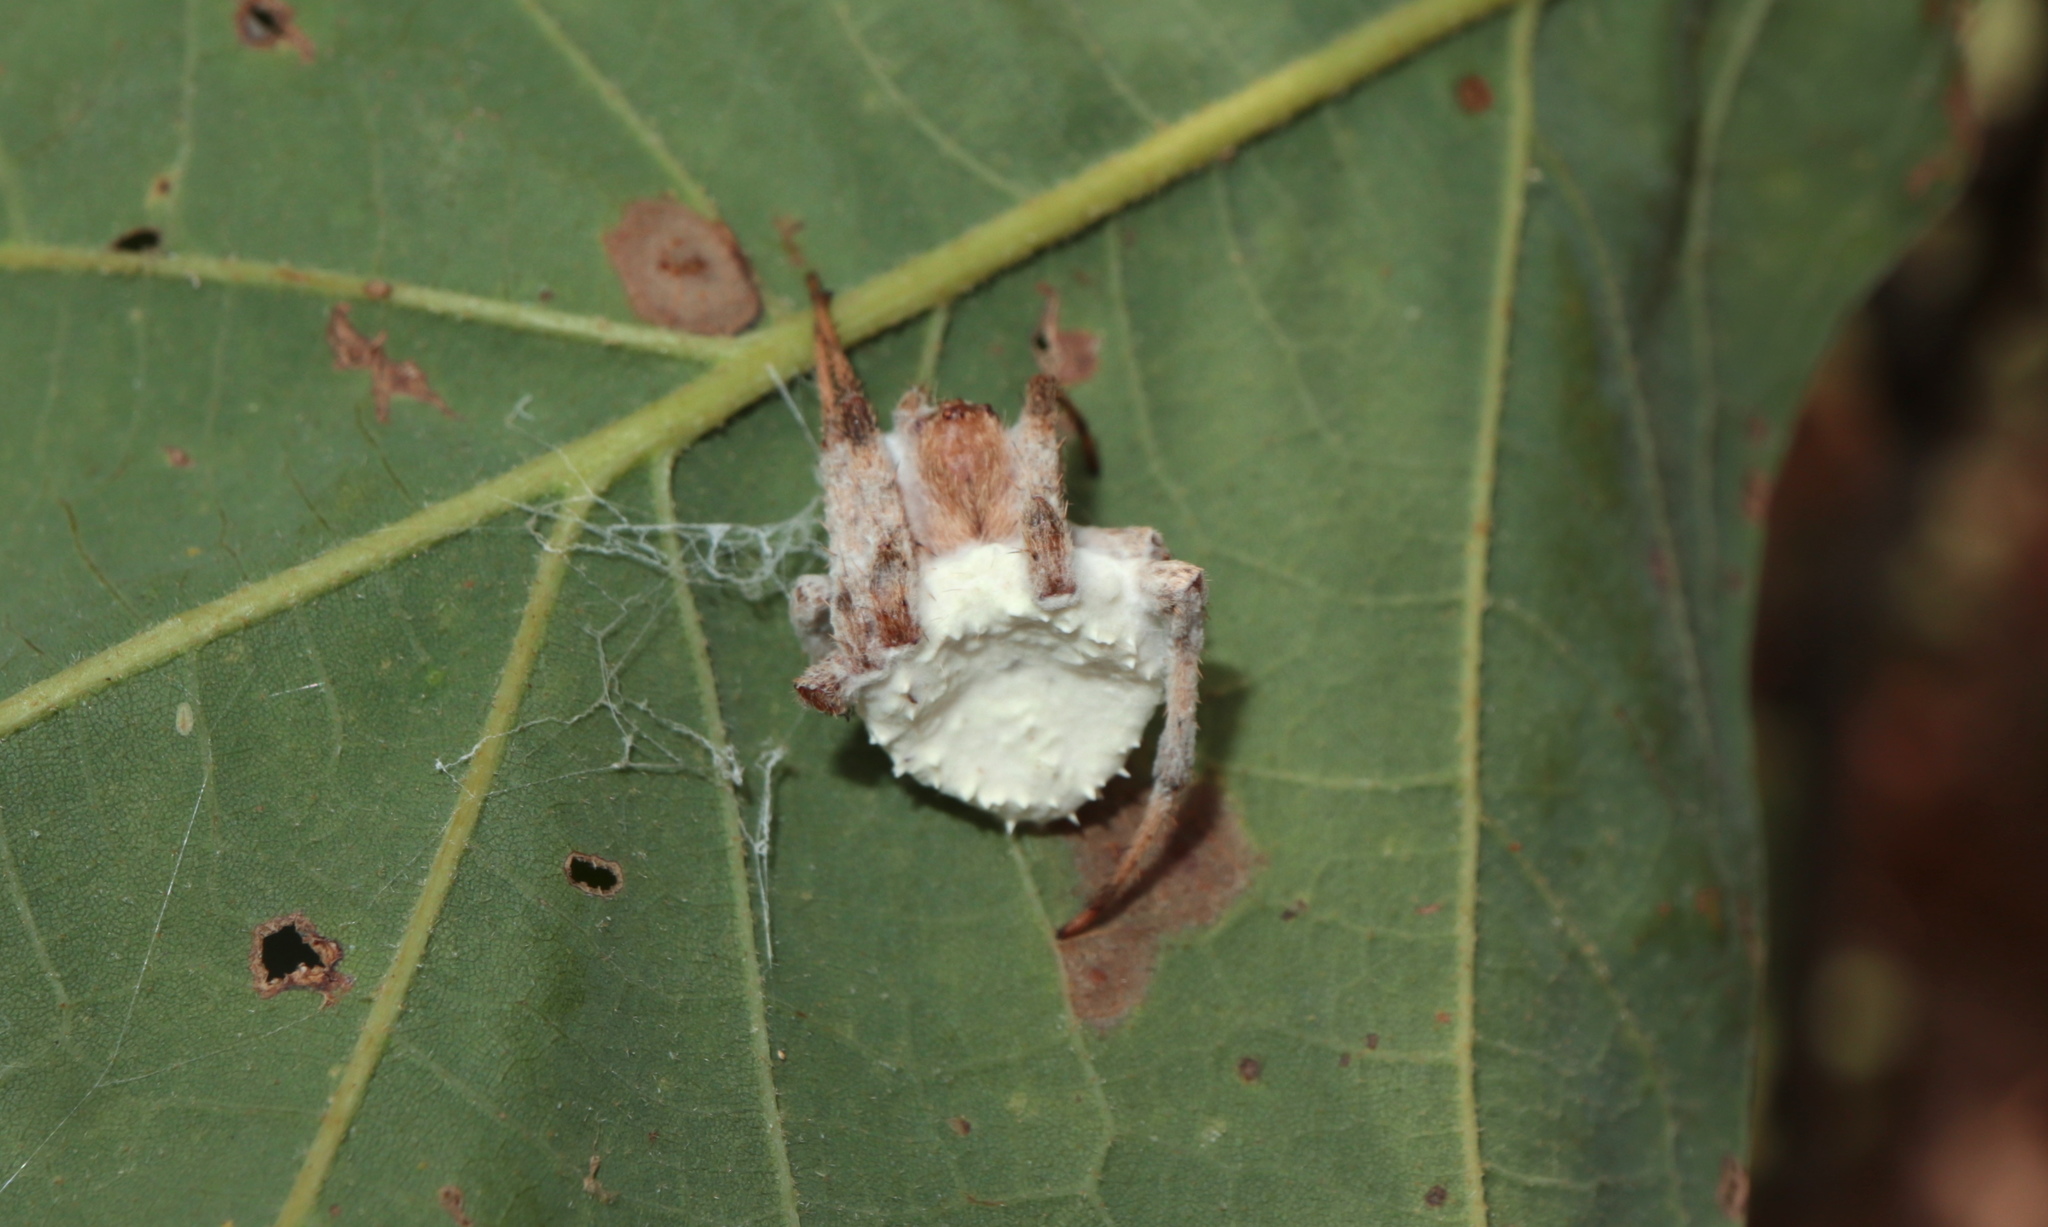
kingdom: Fungi
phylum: Ascomycota
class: Sordariomycetes
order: Hypocreales
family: Cordycipitaceae
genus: Gibellula
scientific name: Gibellula arachnophila
